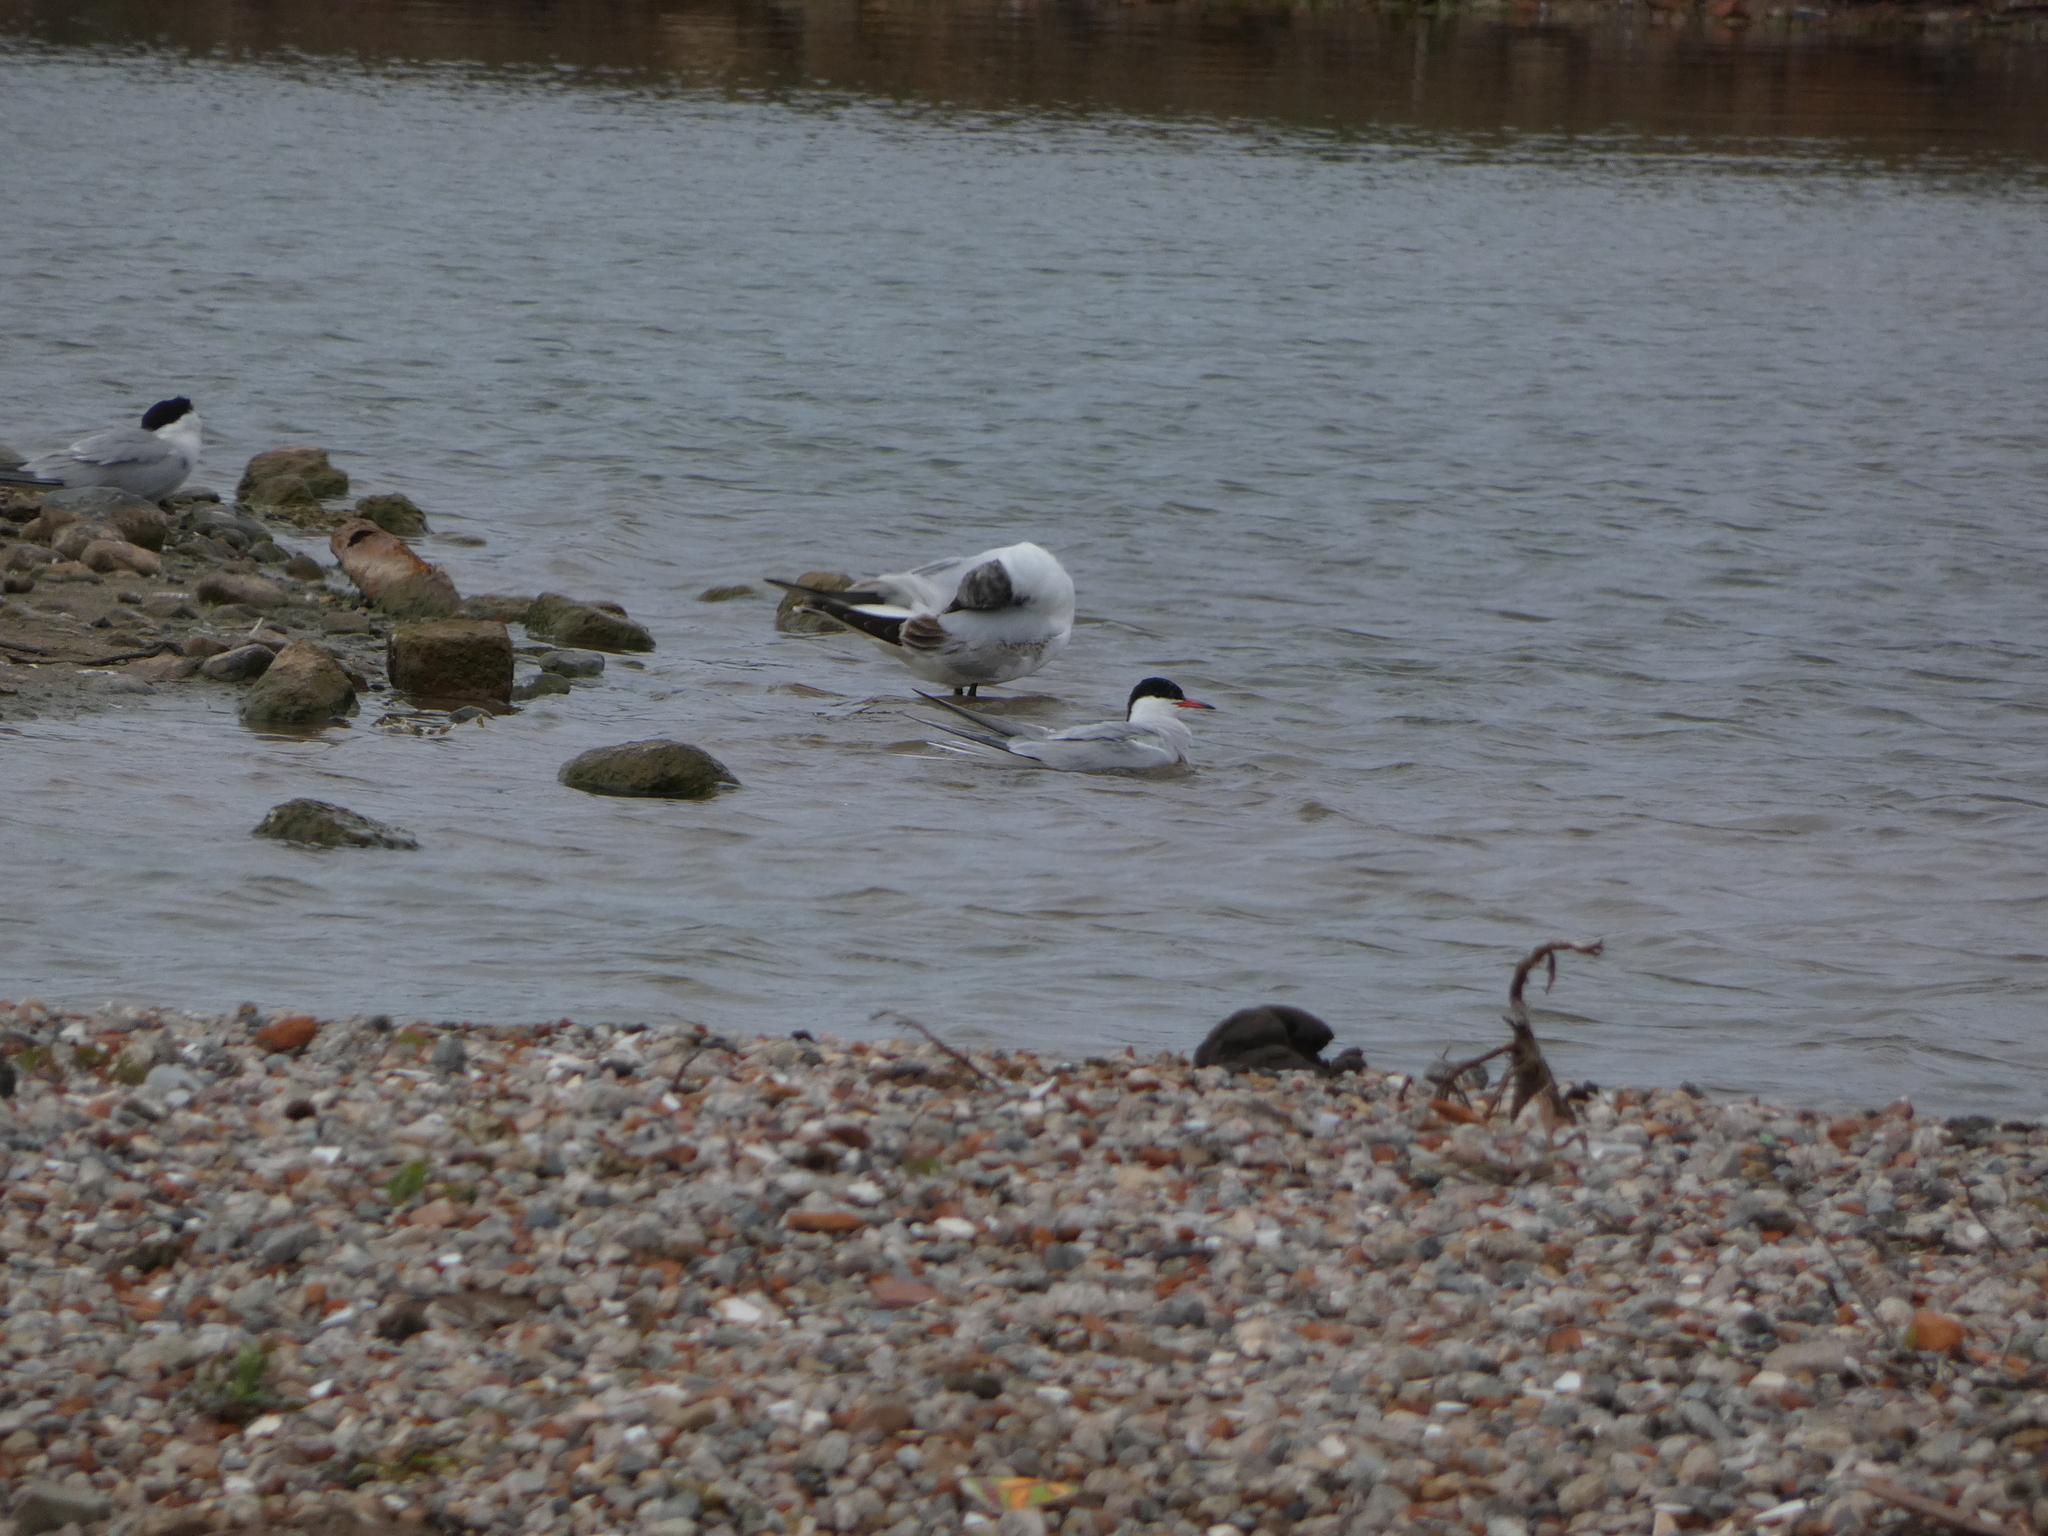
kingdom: Animalia
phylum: Chordata
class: Aves
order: Charadriiformes
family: Laridae
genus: Sterna
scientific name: Sterna hirundo
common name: Common tern
